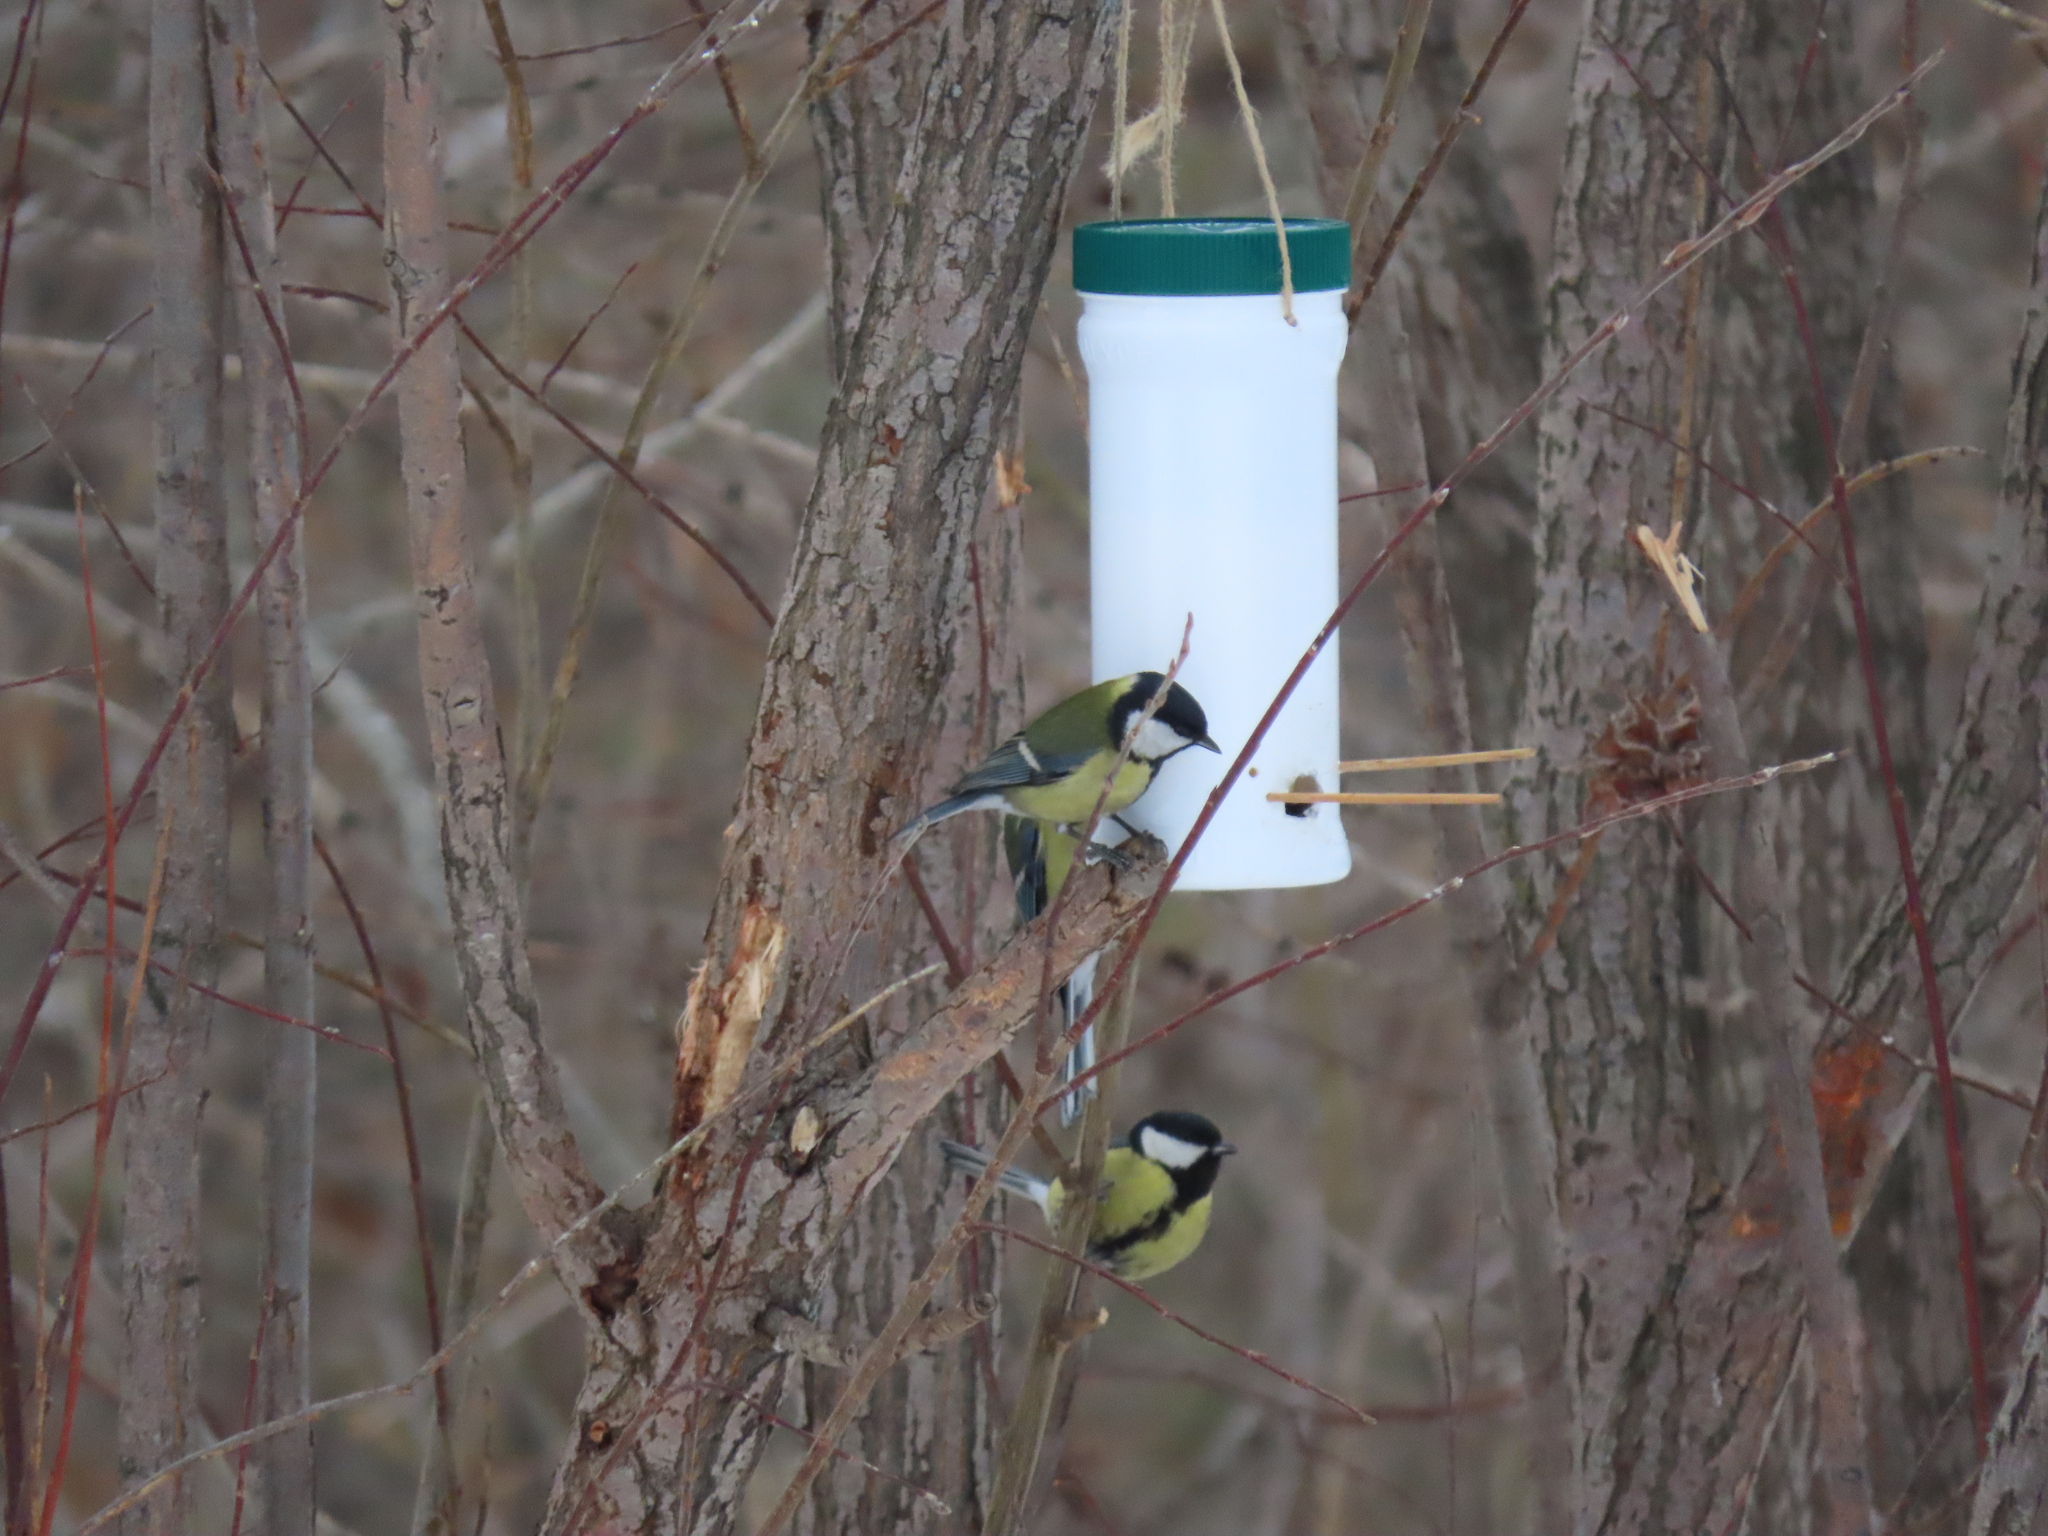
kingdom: Animalia
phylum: Chordata
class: Aves
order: Passeriformes
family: Paridae
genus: Parus
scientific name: Parus major
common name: Great tit
